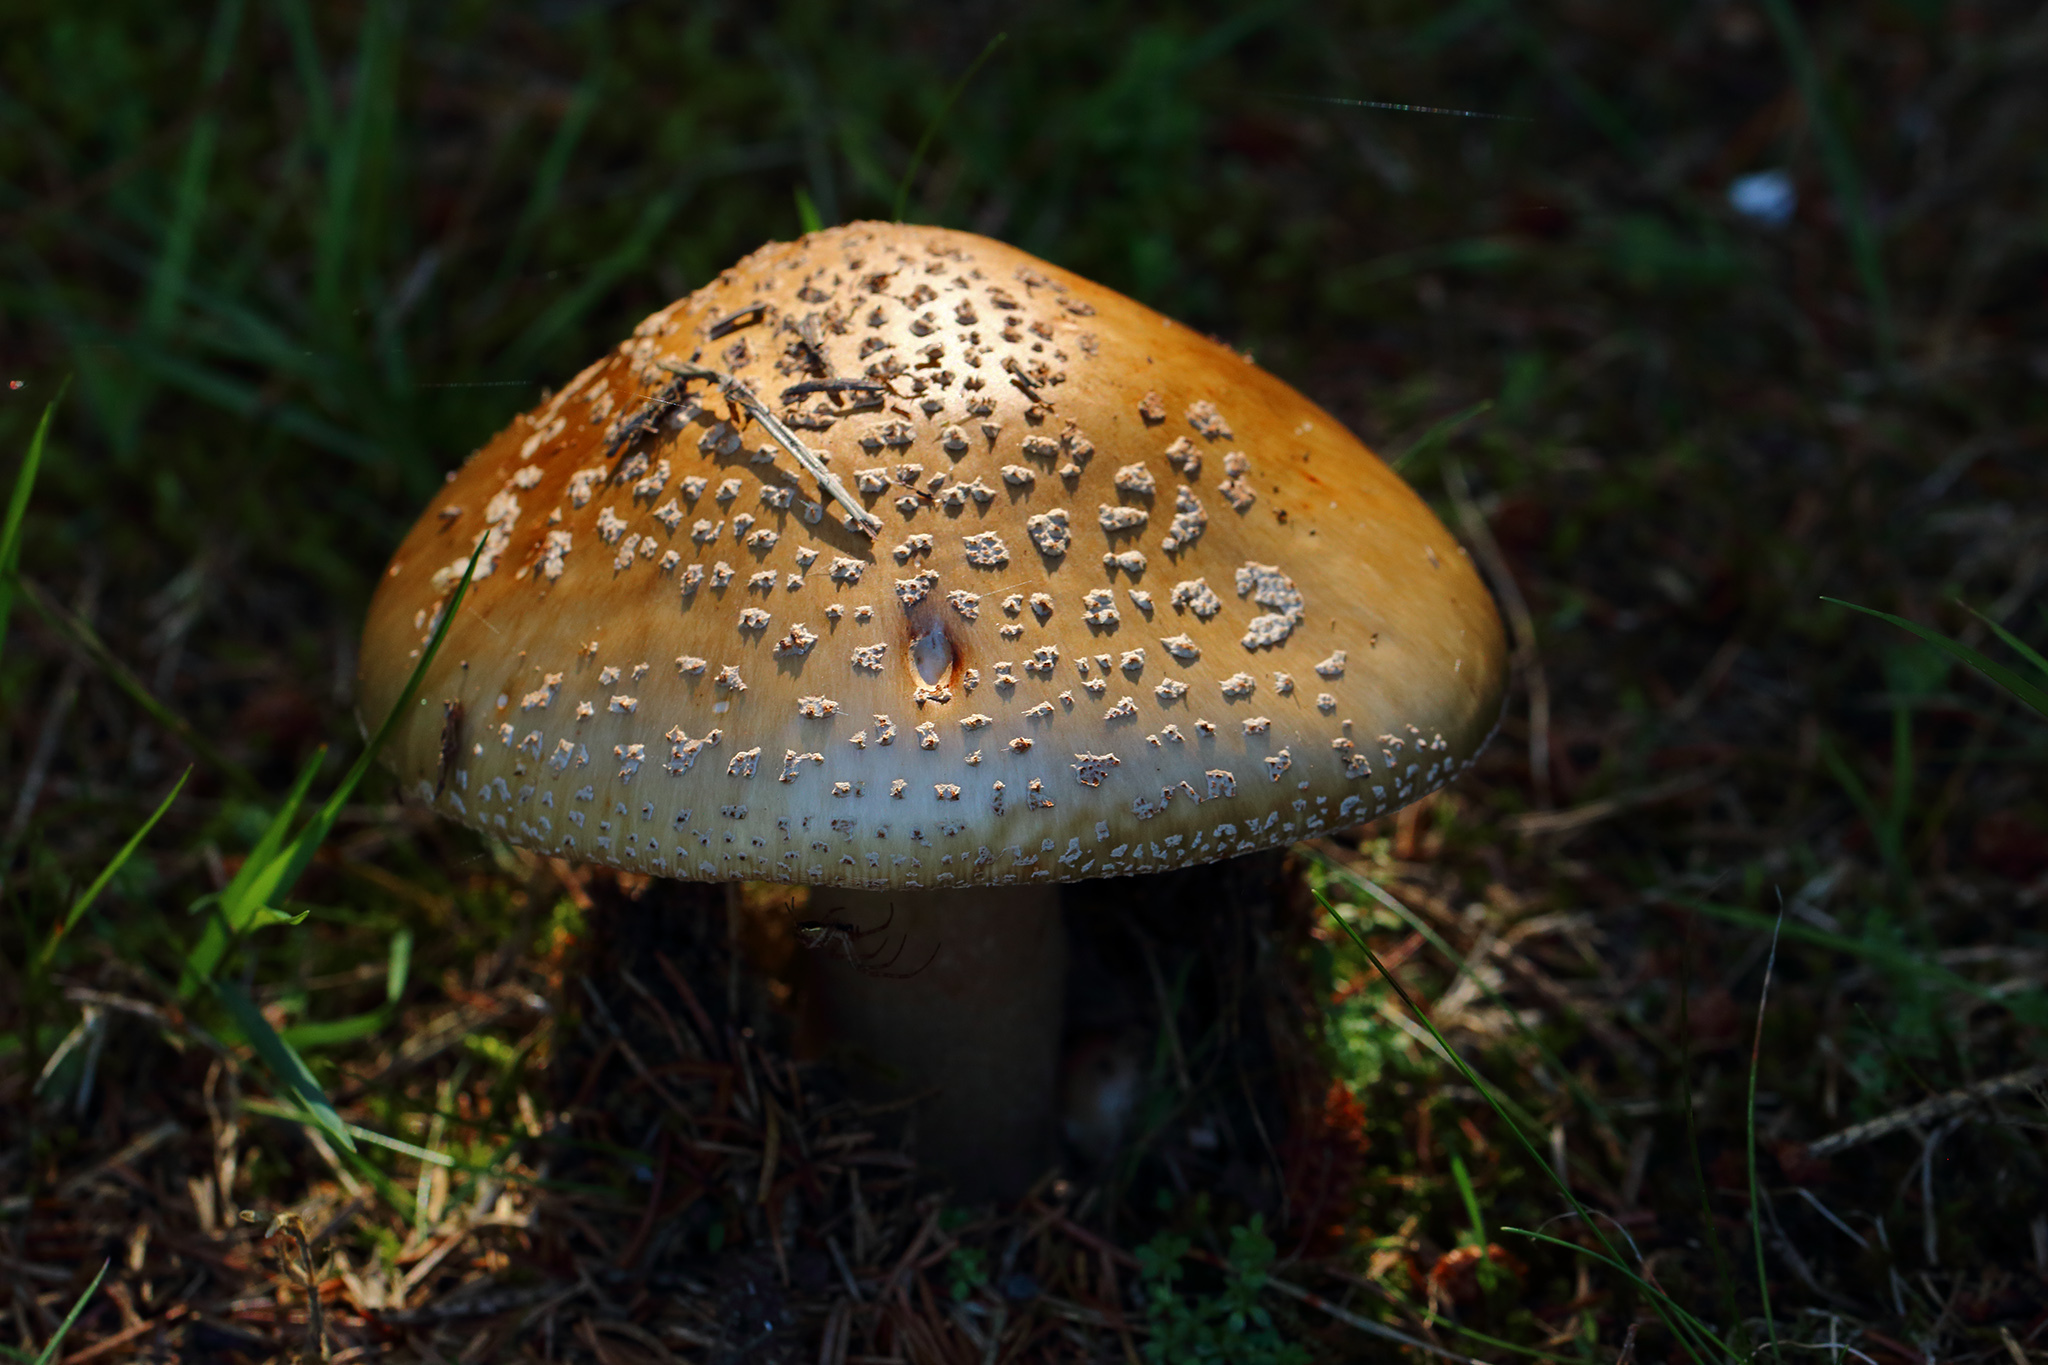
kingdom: Fungi
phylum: Basidiomycota
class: Agaricomycetes
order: Agaricales
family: Amanitaceae
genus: Amanita
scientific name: Amanita rubescens
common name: Blusher
